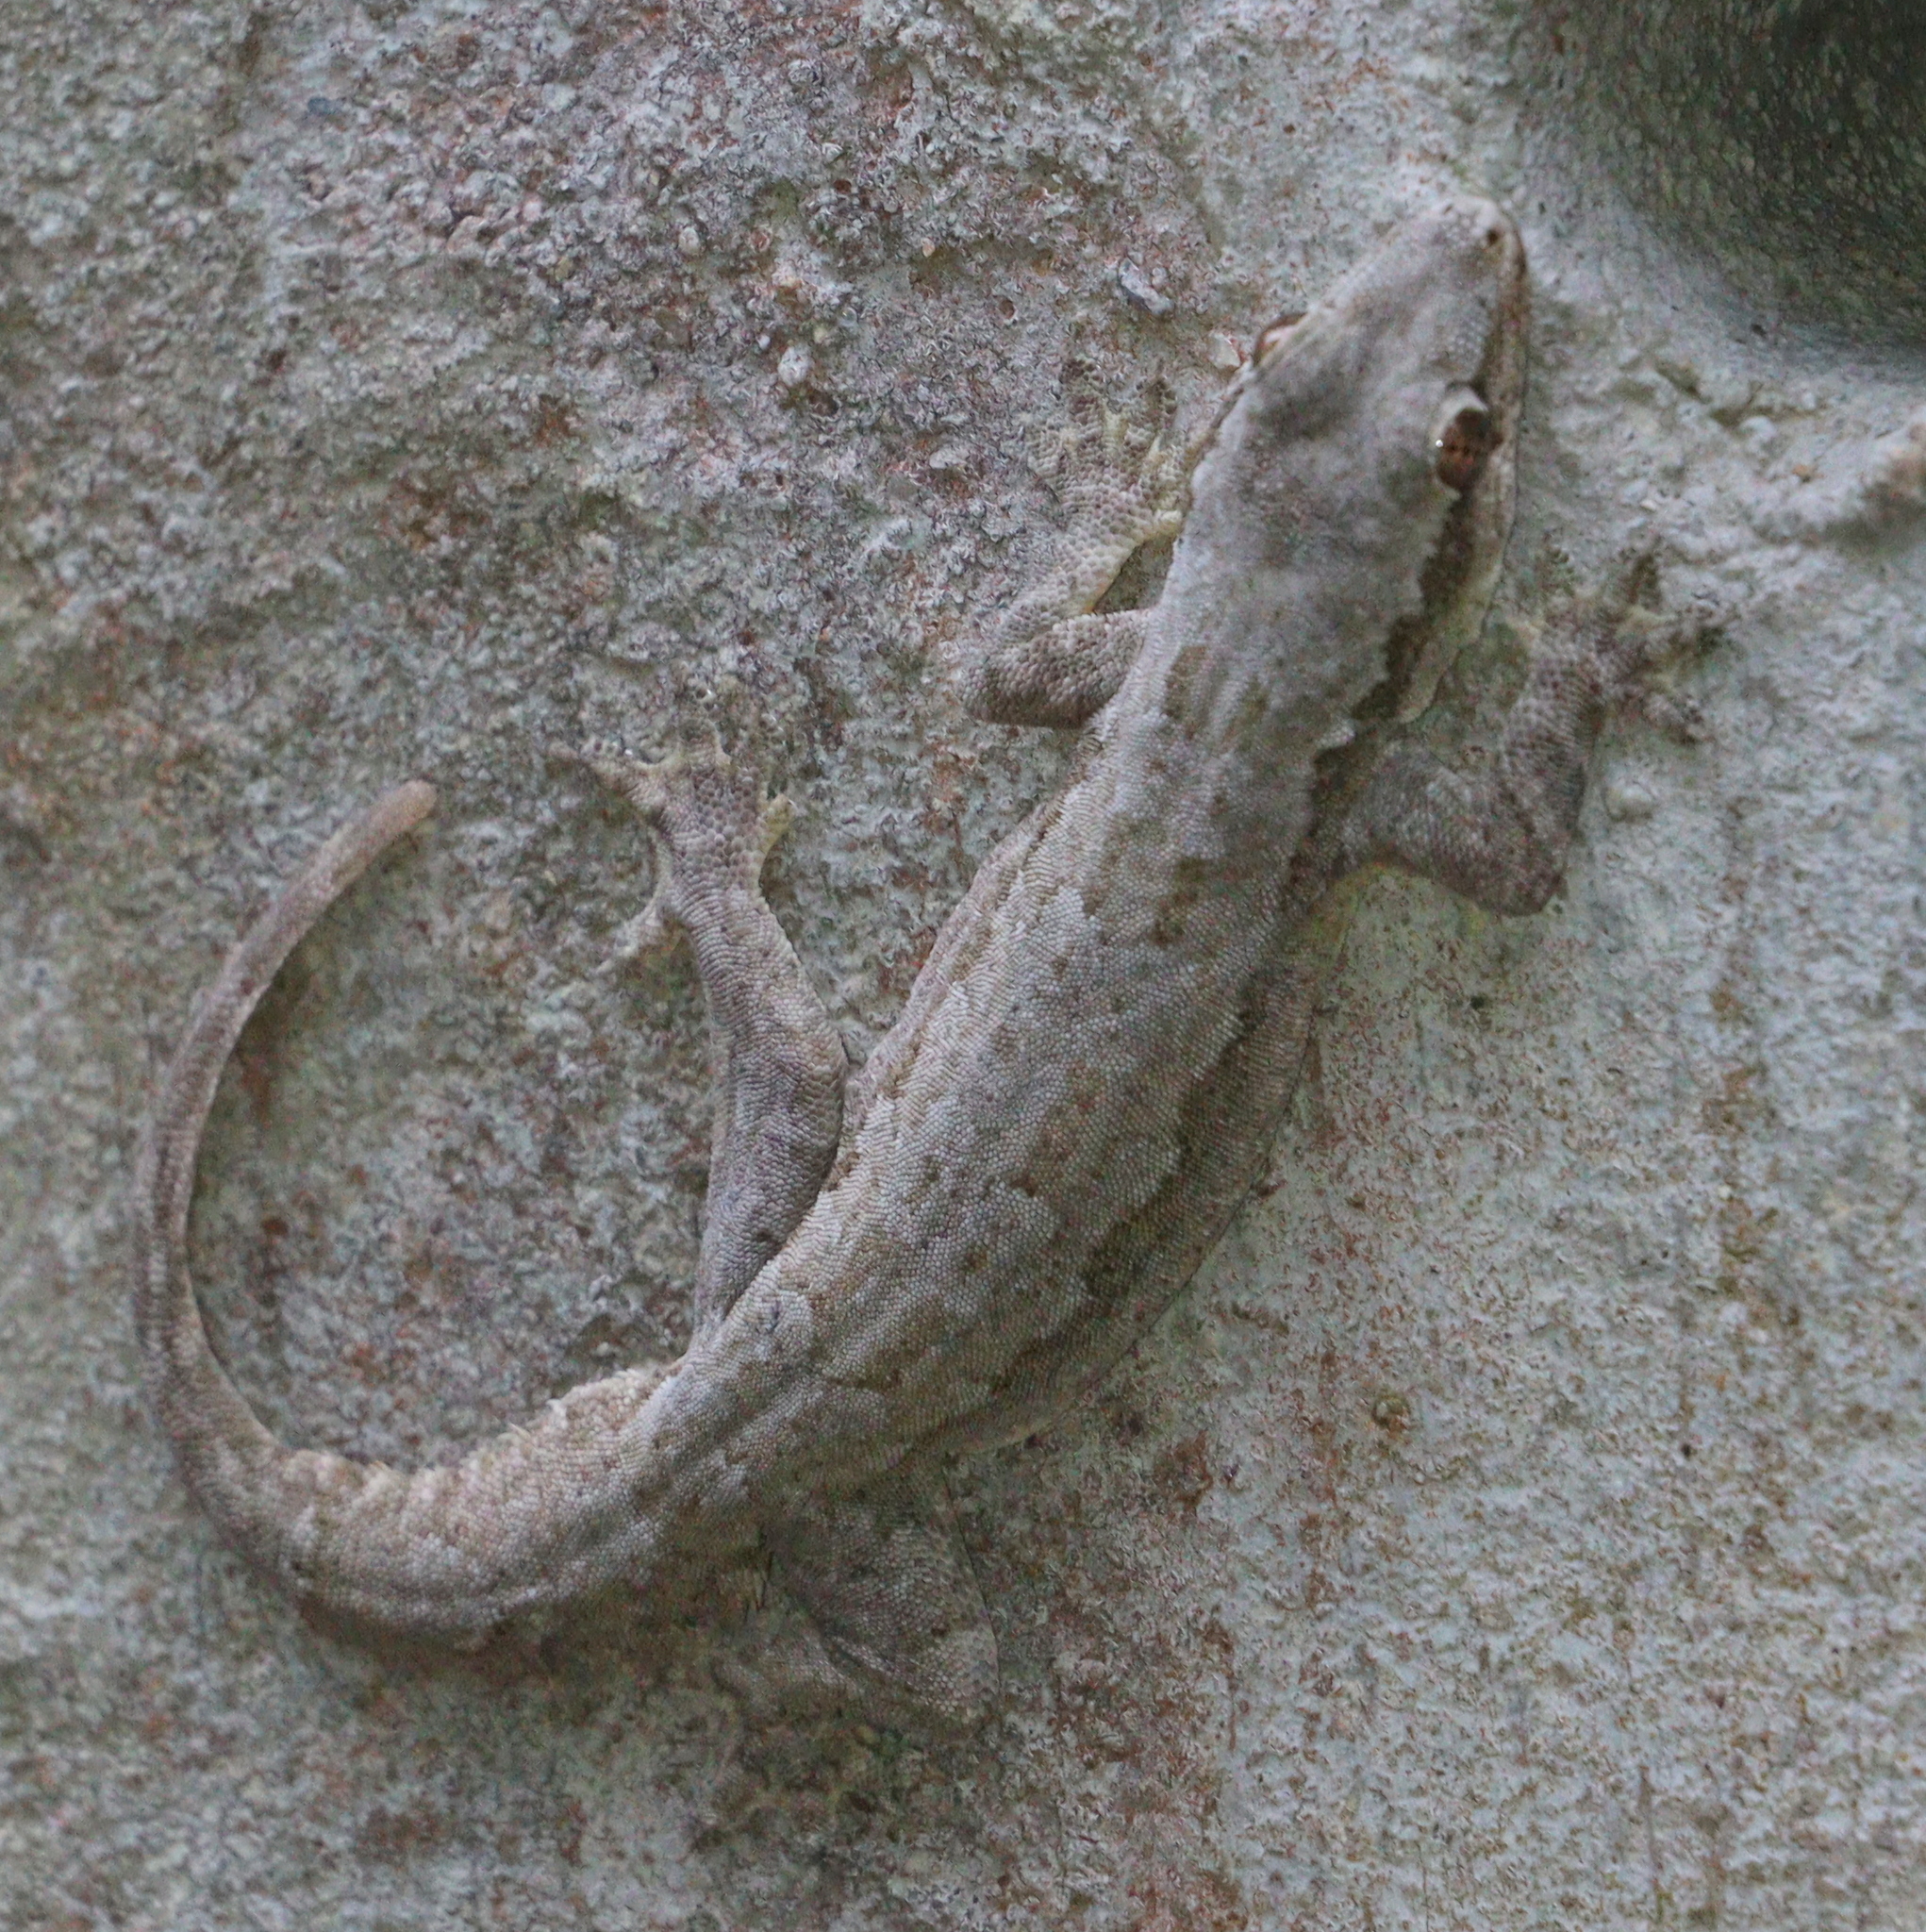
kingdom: Animalia
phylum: Chordata
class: Squamata
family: Gekkonidae
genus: Hemidactylus
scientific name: Hemidactylus platyurus
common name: Flat-tailed house gecko
